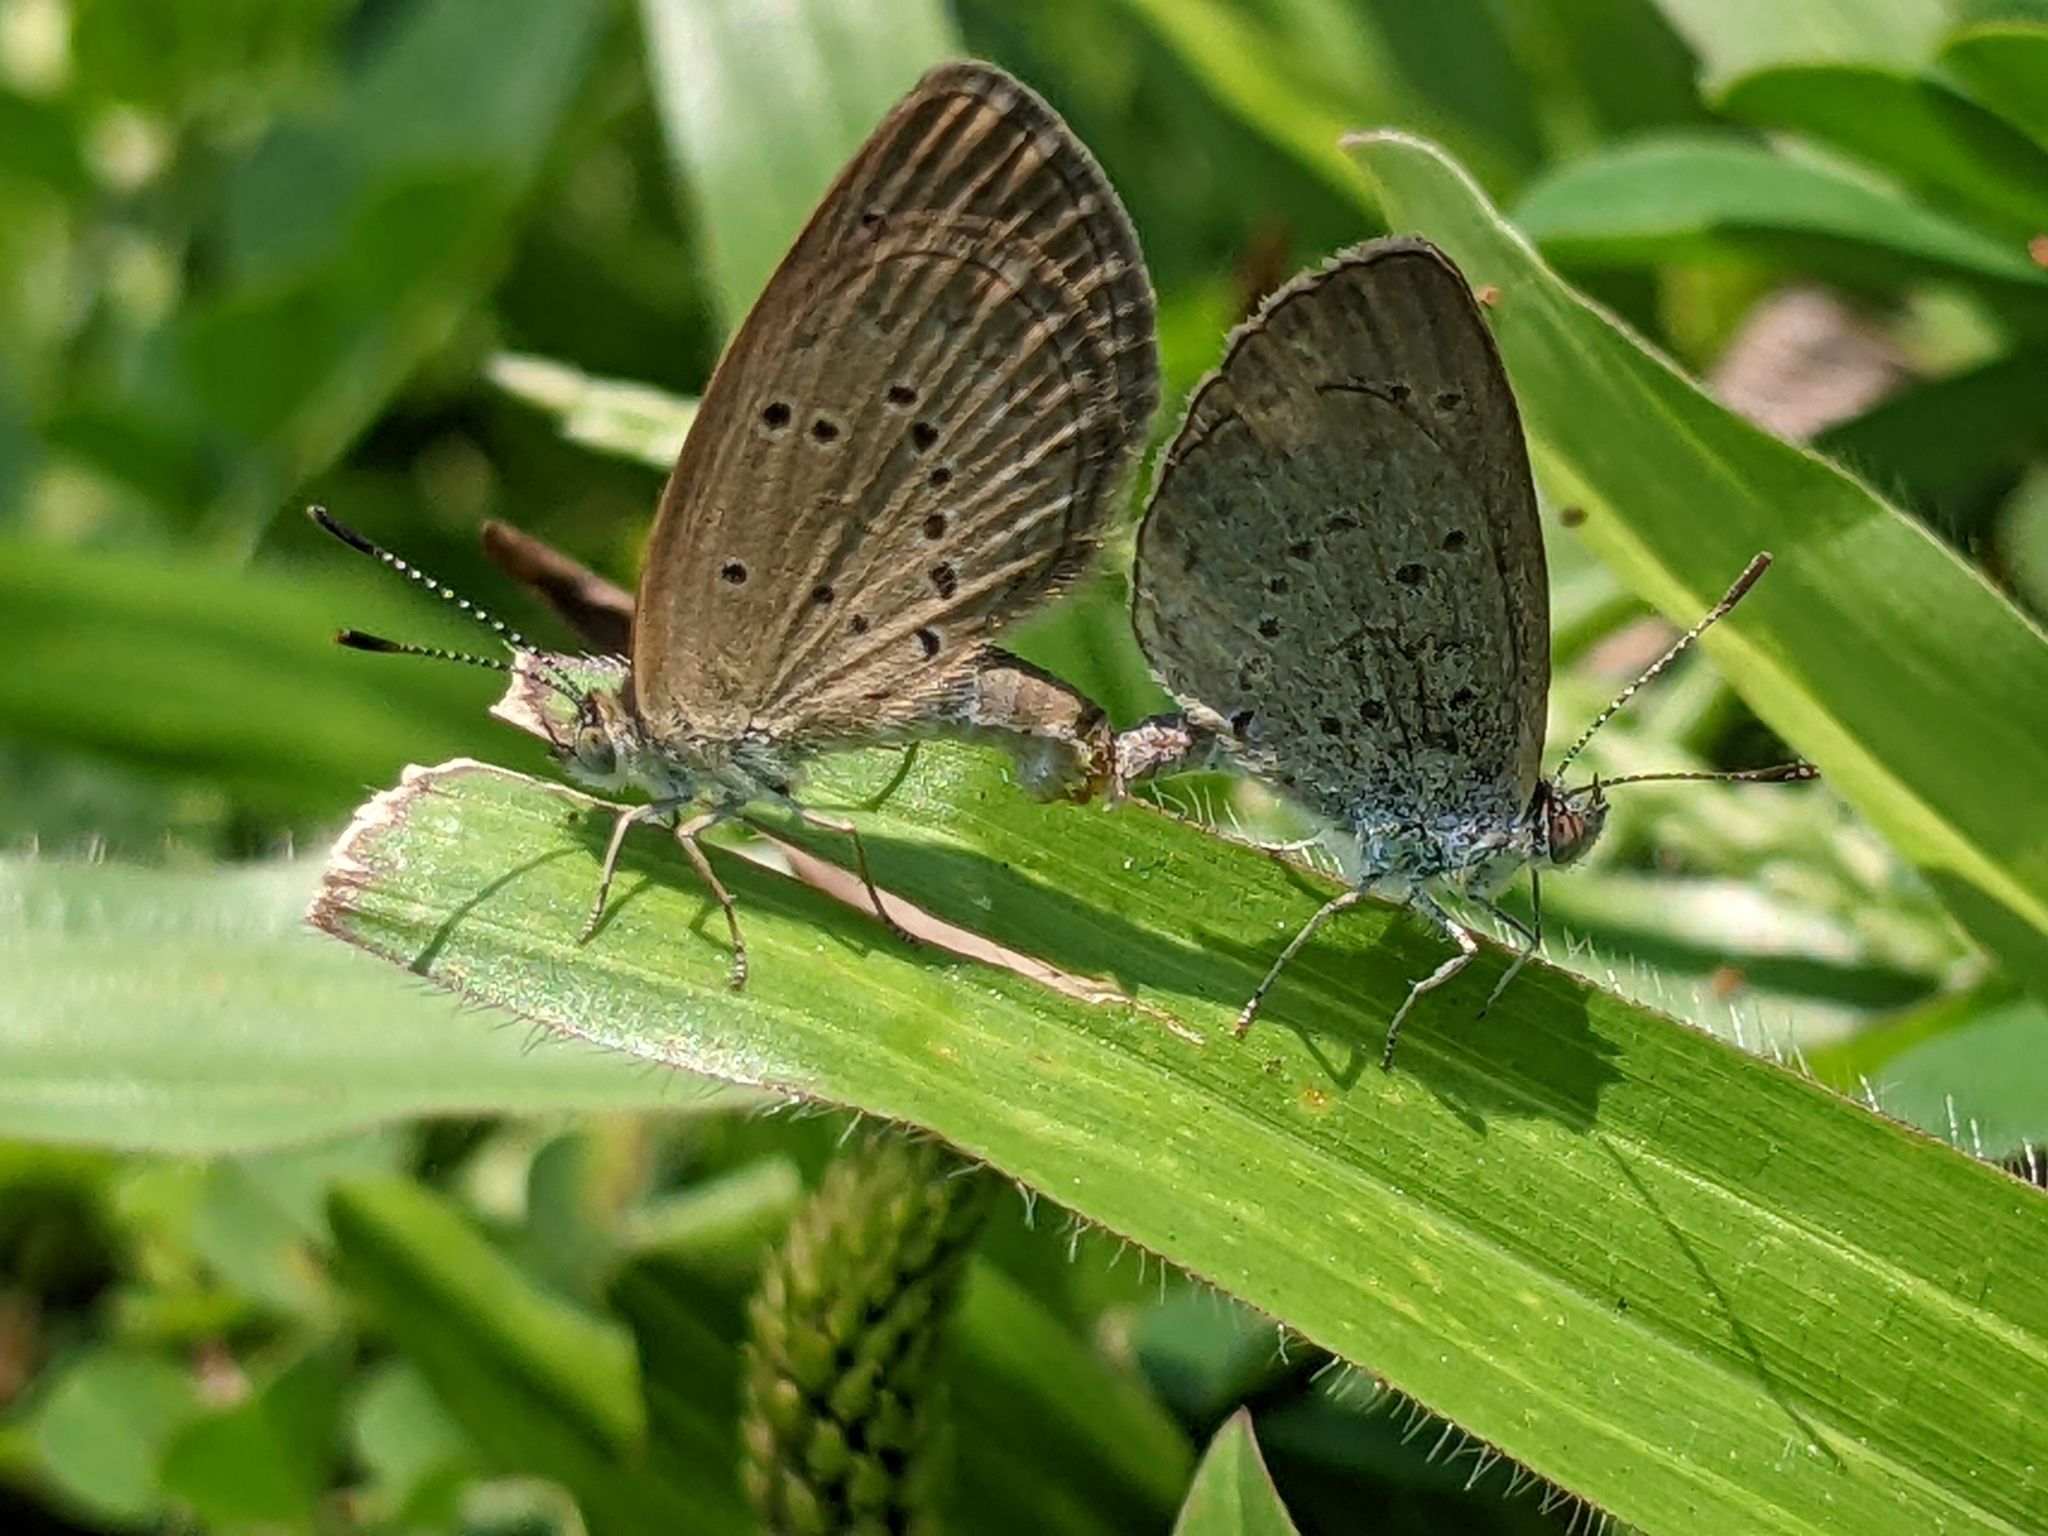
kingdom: Animalia
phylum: Arthropoda
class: Insecta
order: Lepidoptera
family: Lycaenidae
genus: Zizina
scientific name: Zizina otis
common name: Lesser grass blue
